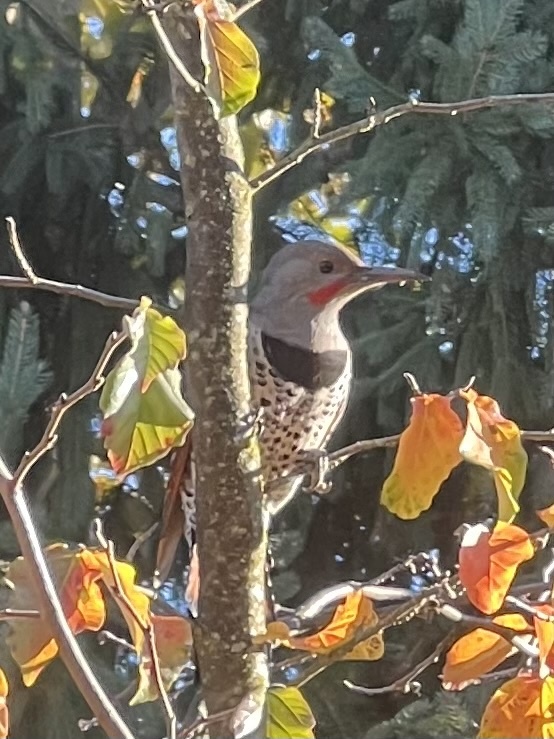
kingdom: Animalia
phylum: Chordata
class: Aves
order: Piciformes
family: Picidae
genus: Colaptes
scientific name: Colaptes auratus
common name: Northern flicker
